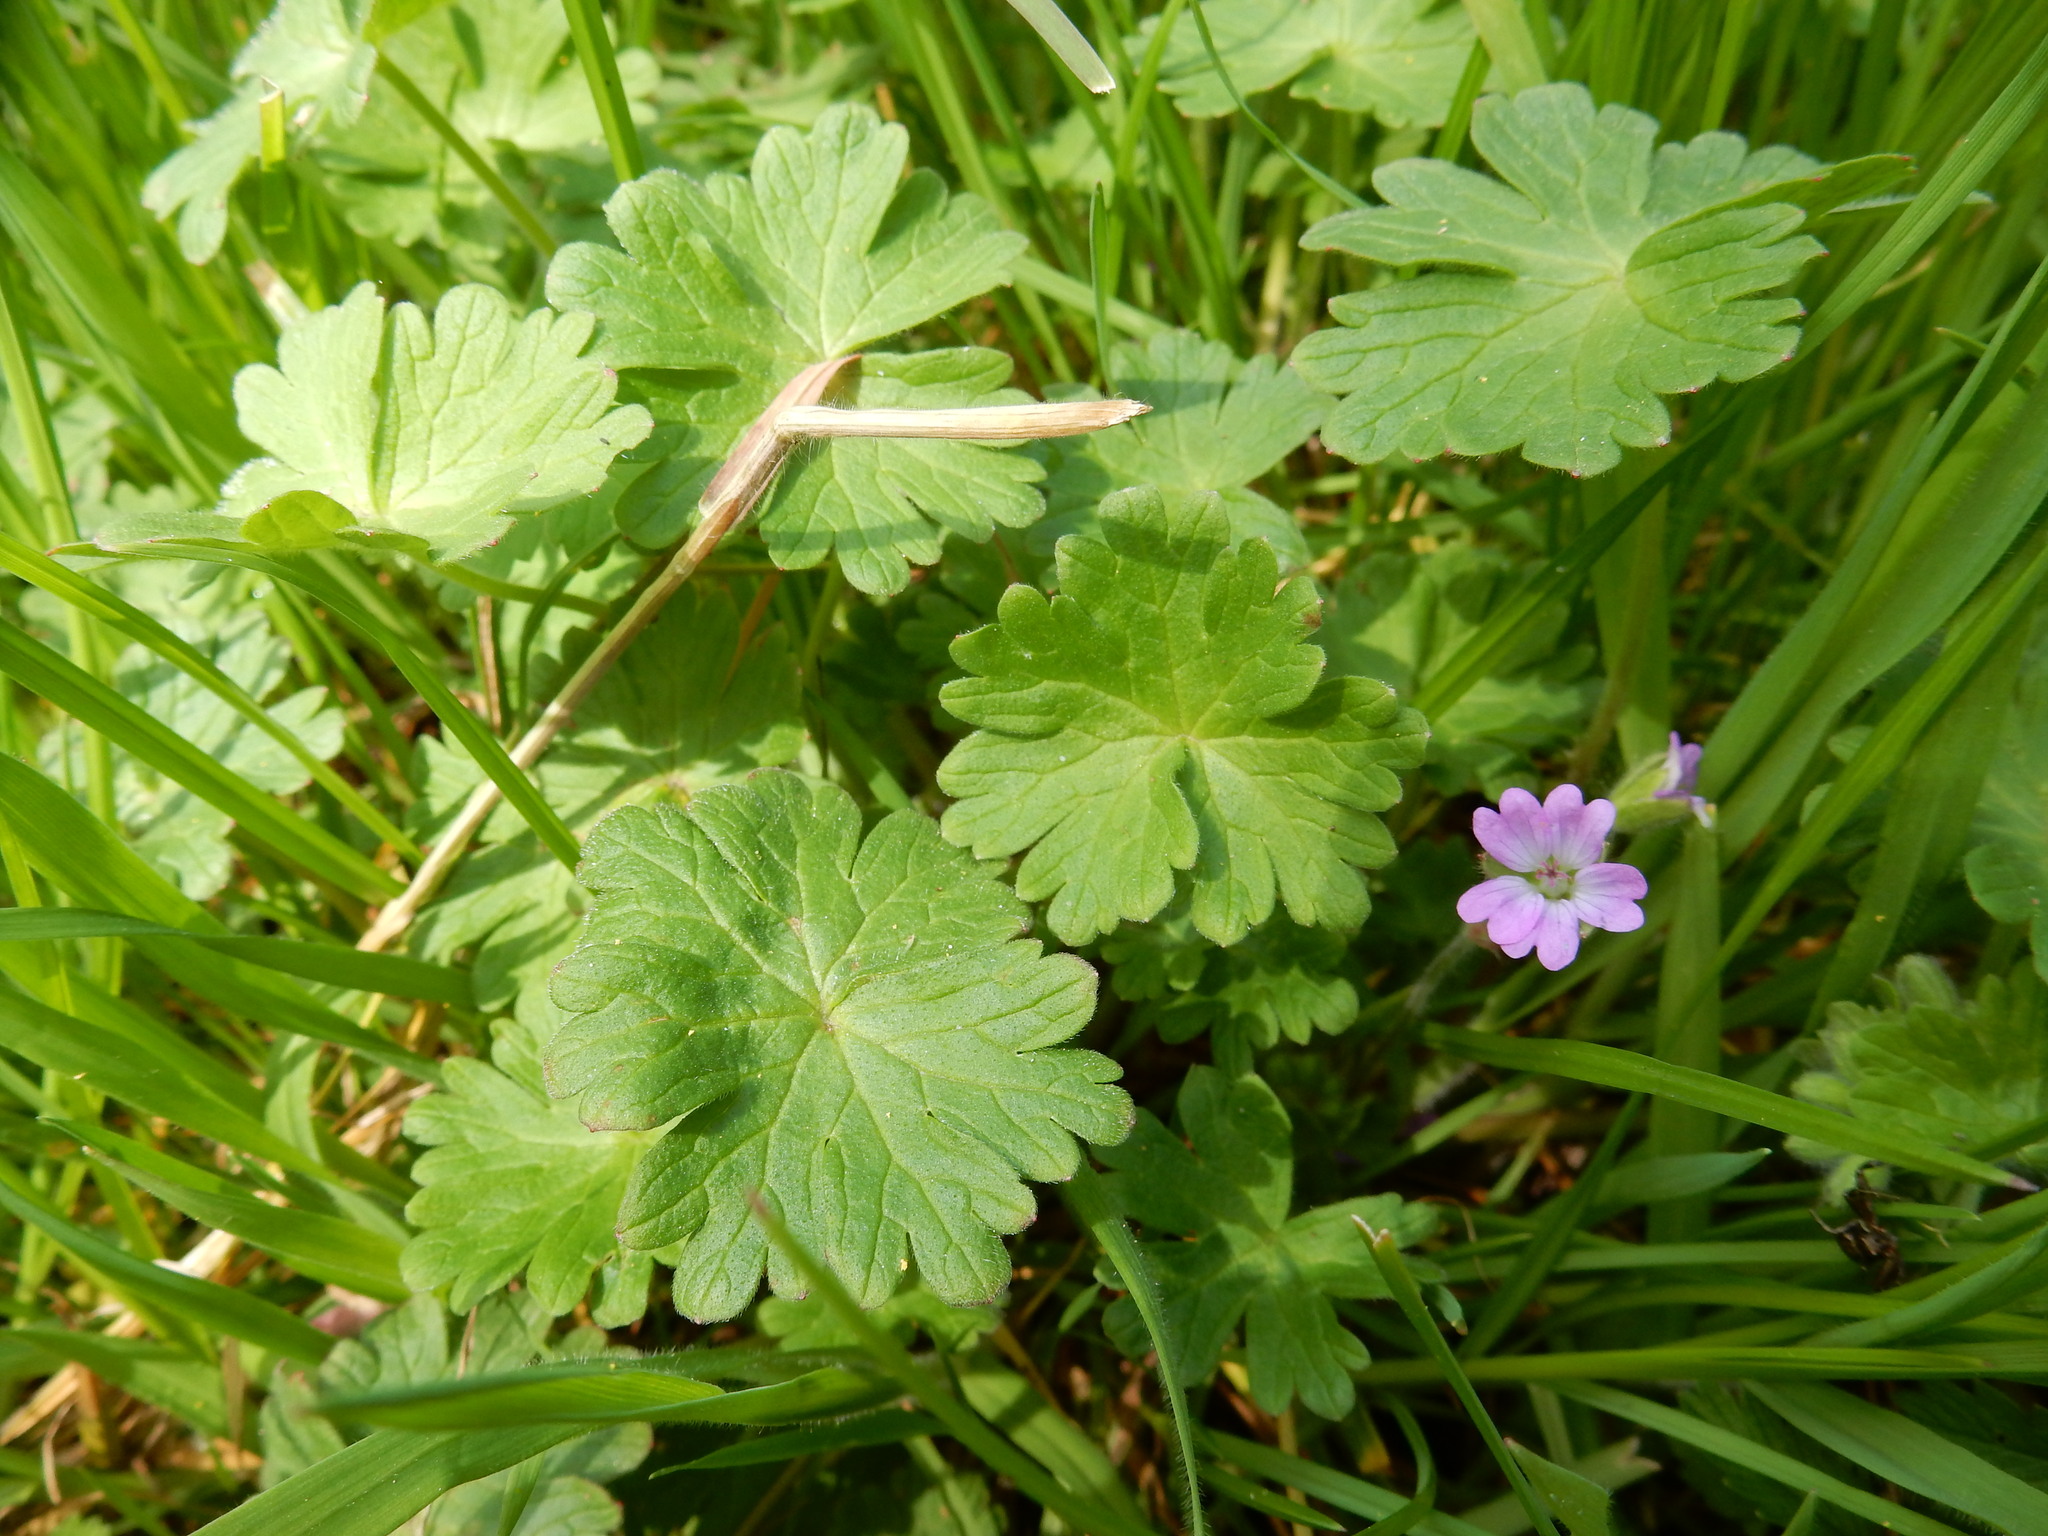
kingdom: Plantae
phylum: Tracheophyta
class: Magnoliopsida
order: Geraniales
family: Geraniaceae
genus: Geranium
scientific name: Geranium pyrenaicum
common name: Hedgerow crane's-bill
